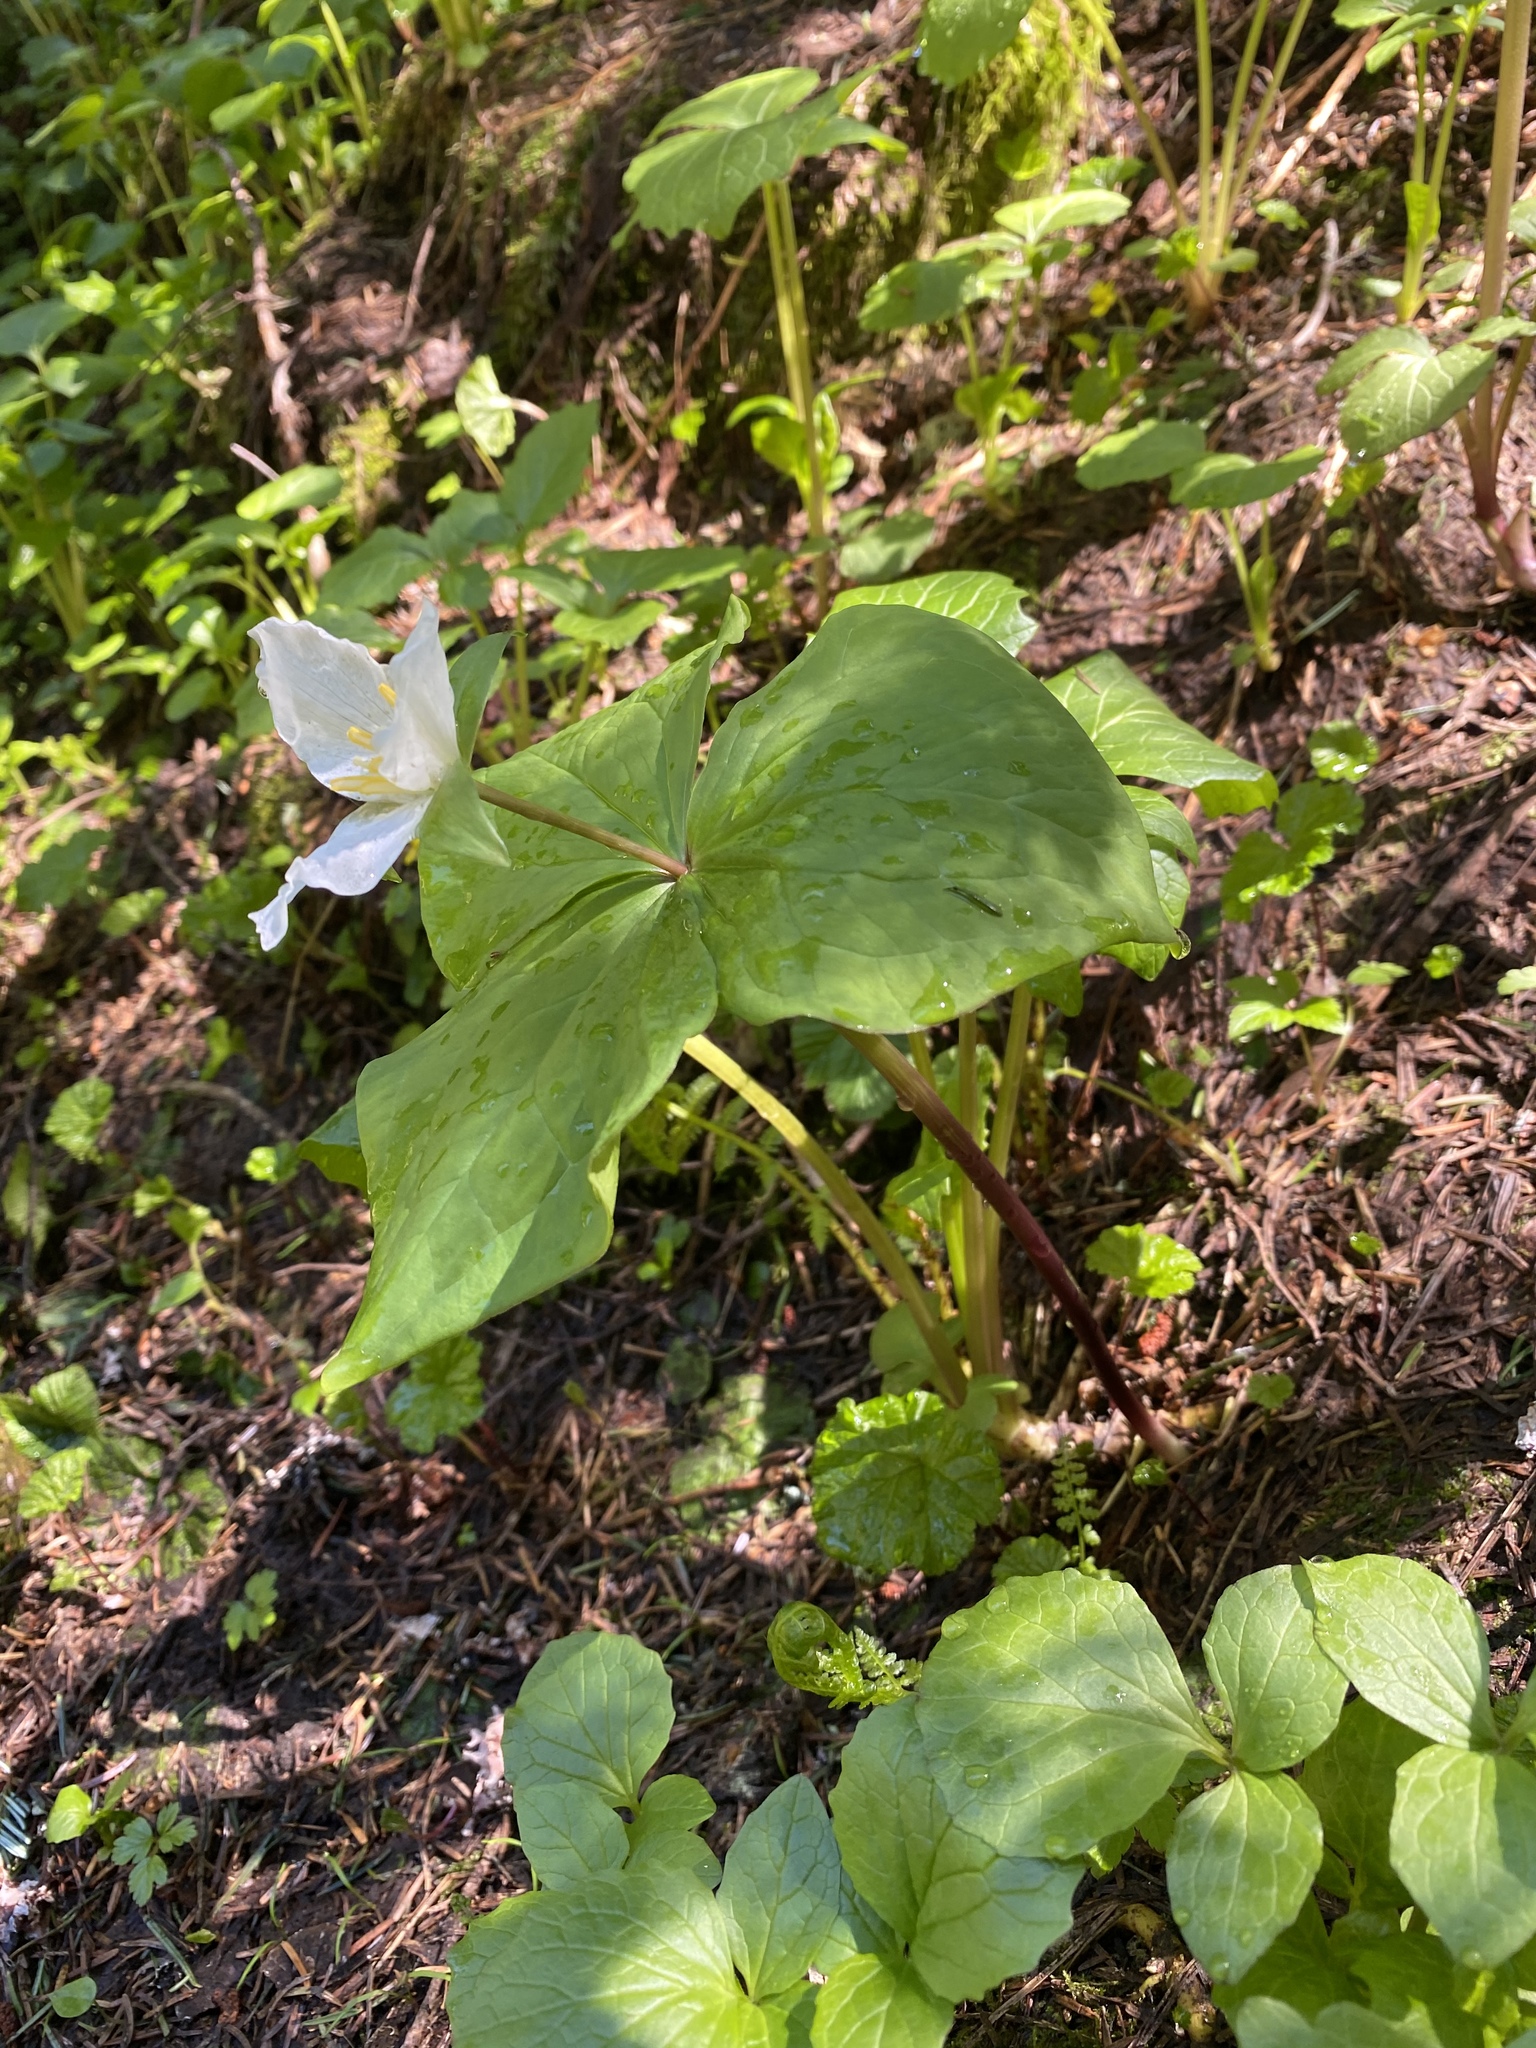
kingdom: Plantae
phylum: Tracheophyta
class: Liliopsida
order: Liliales
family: Melanthiaceae
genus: Trillium
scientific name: Trillium ovatum
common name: Pacific trillium
